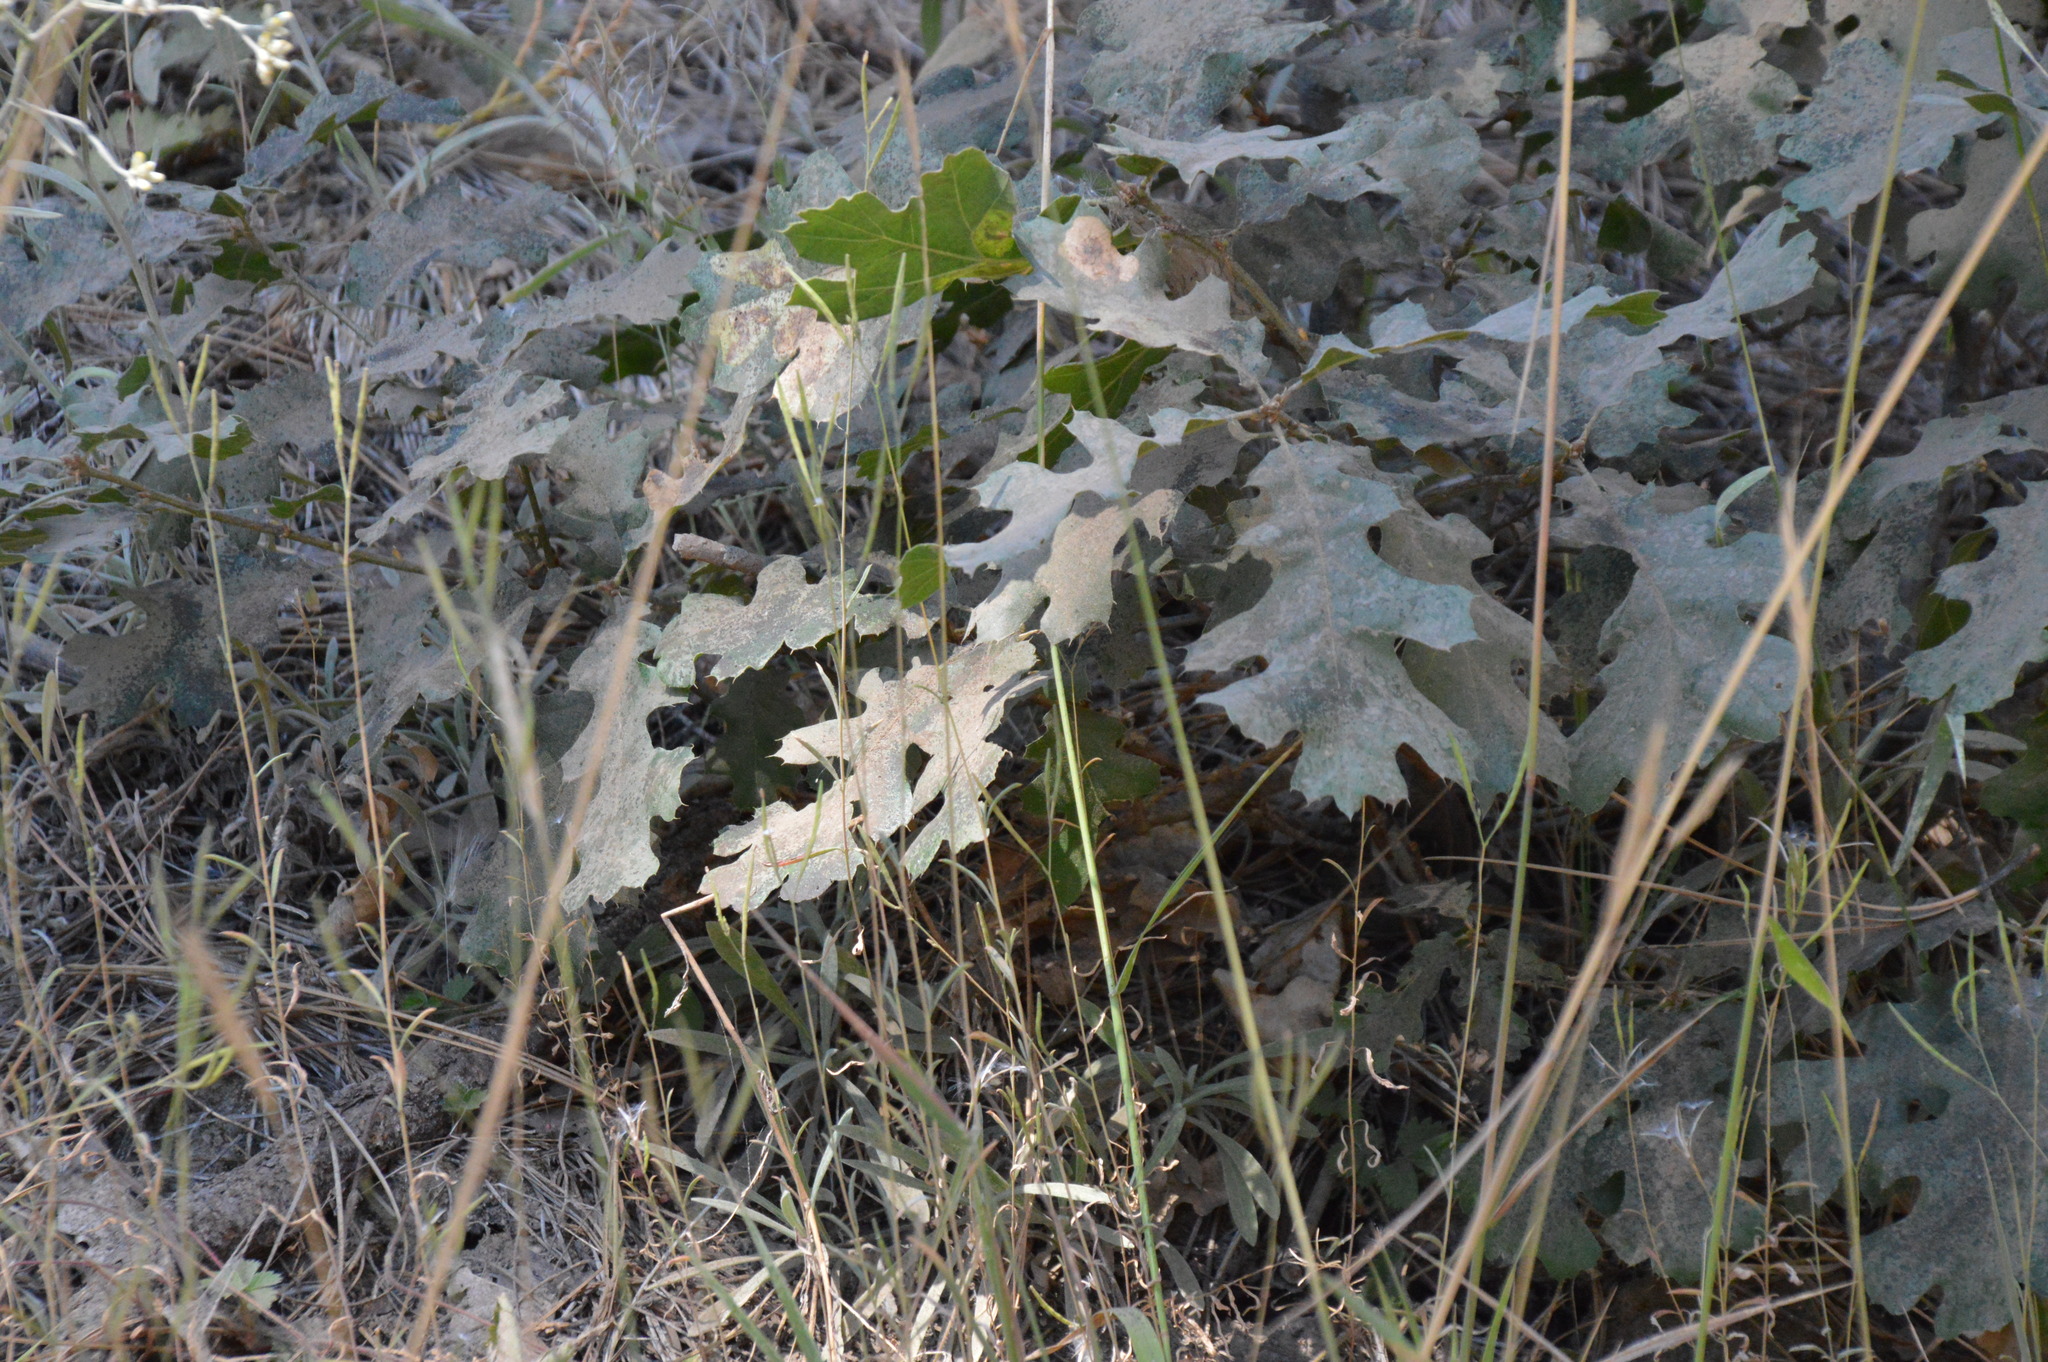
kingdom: Plantae
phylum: Tracheophyta
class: Magnoliopsida
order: Fagales
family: Fagaceae
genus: Quercus
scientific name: Quercus kelloggii
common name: California black oak
